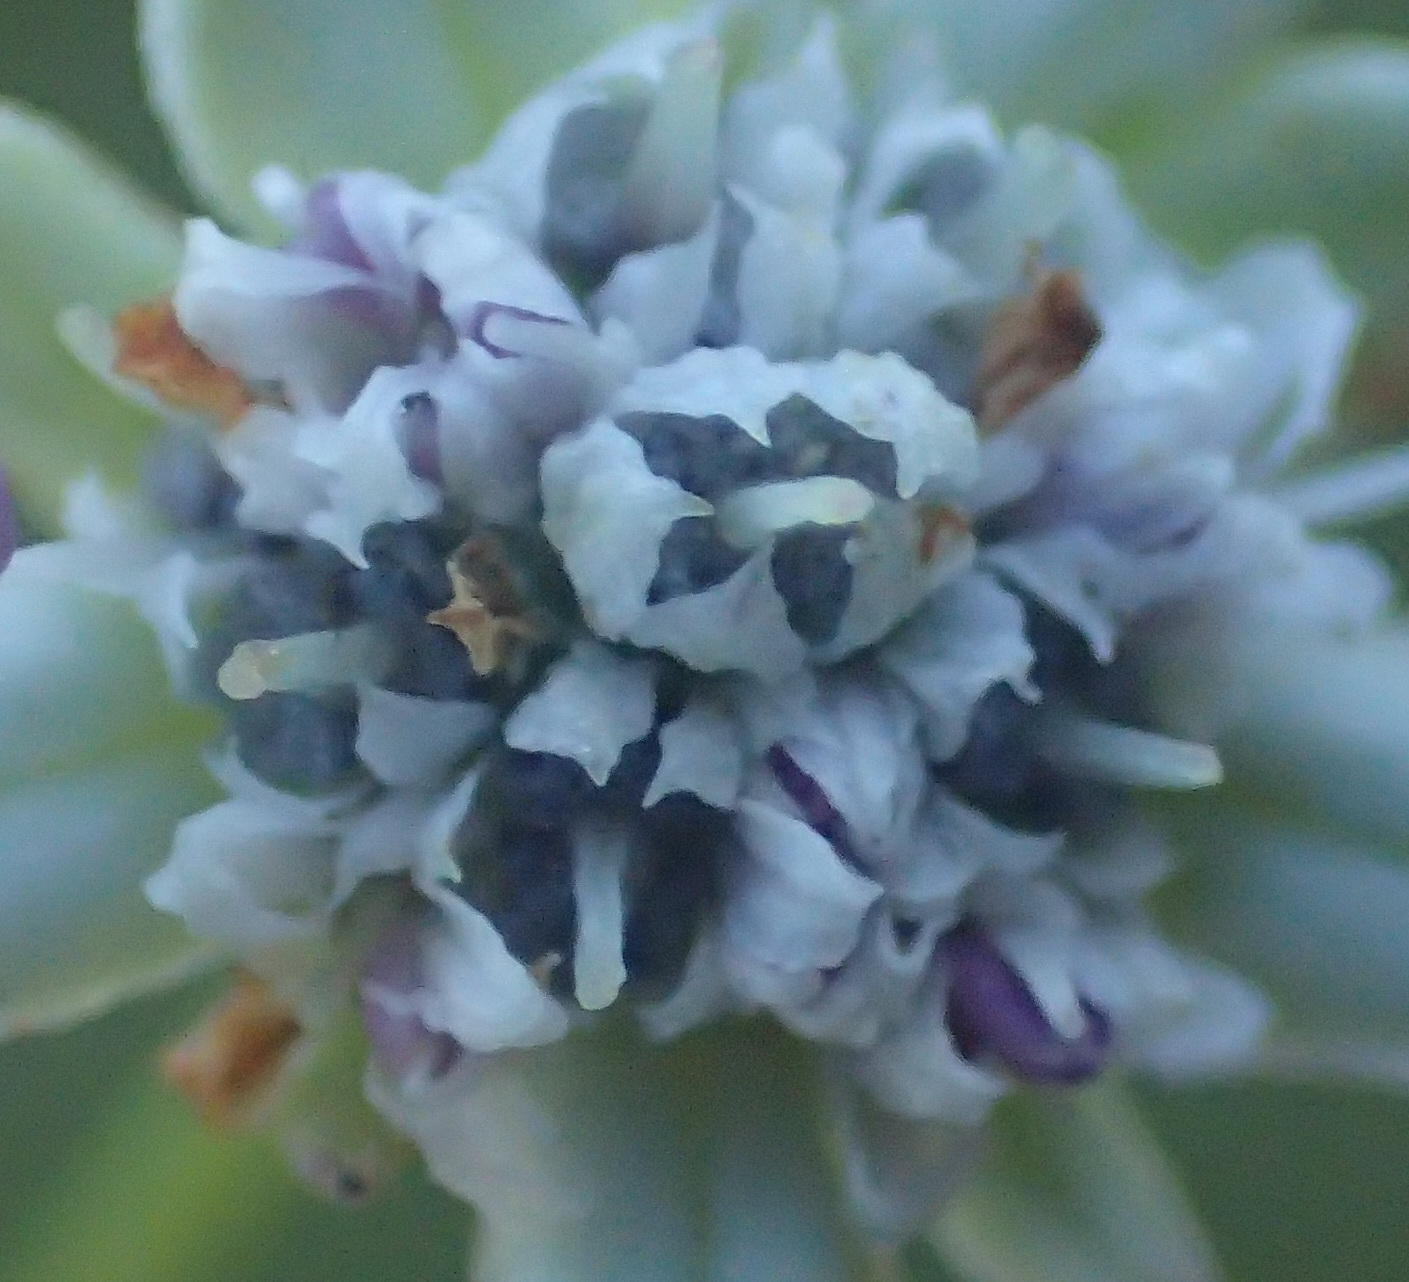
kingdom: Plantae
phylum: Tracheophyta
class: Magnoliopsida
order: Apiales
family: Apiaceae
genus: Alepidea
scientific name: Alepidea capensis
